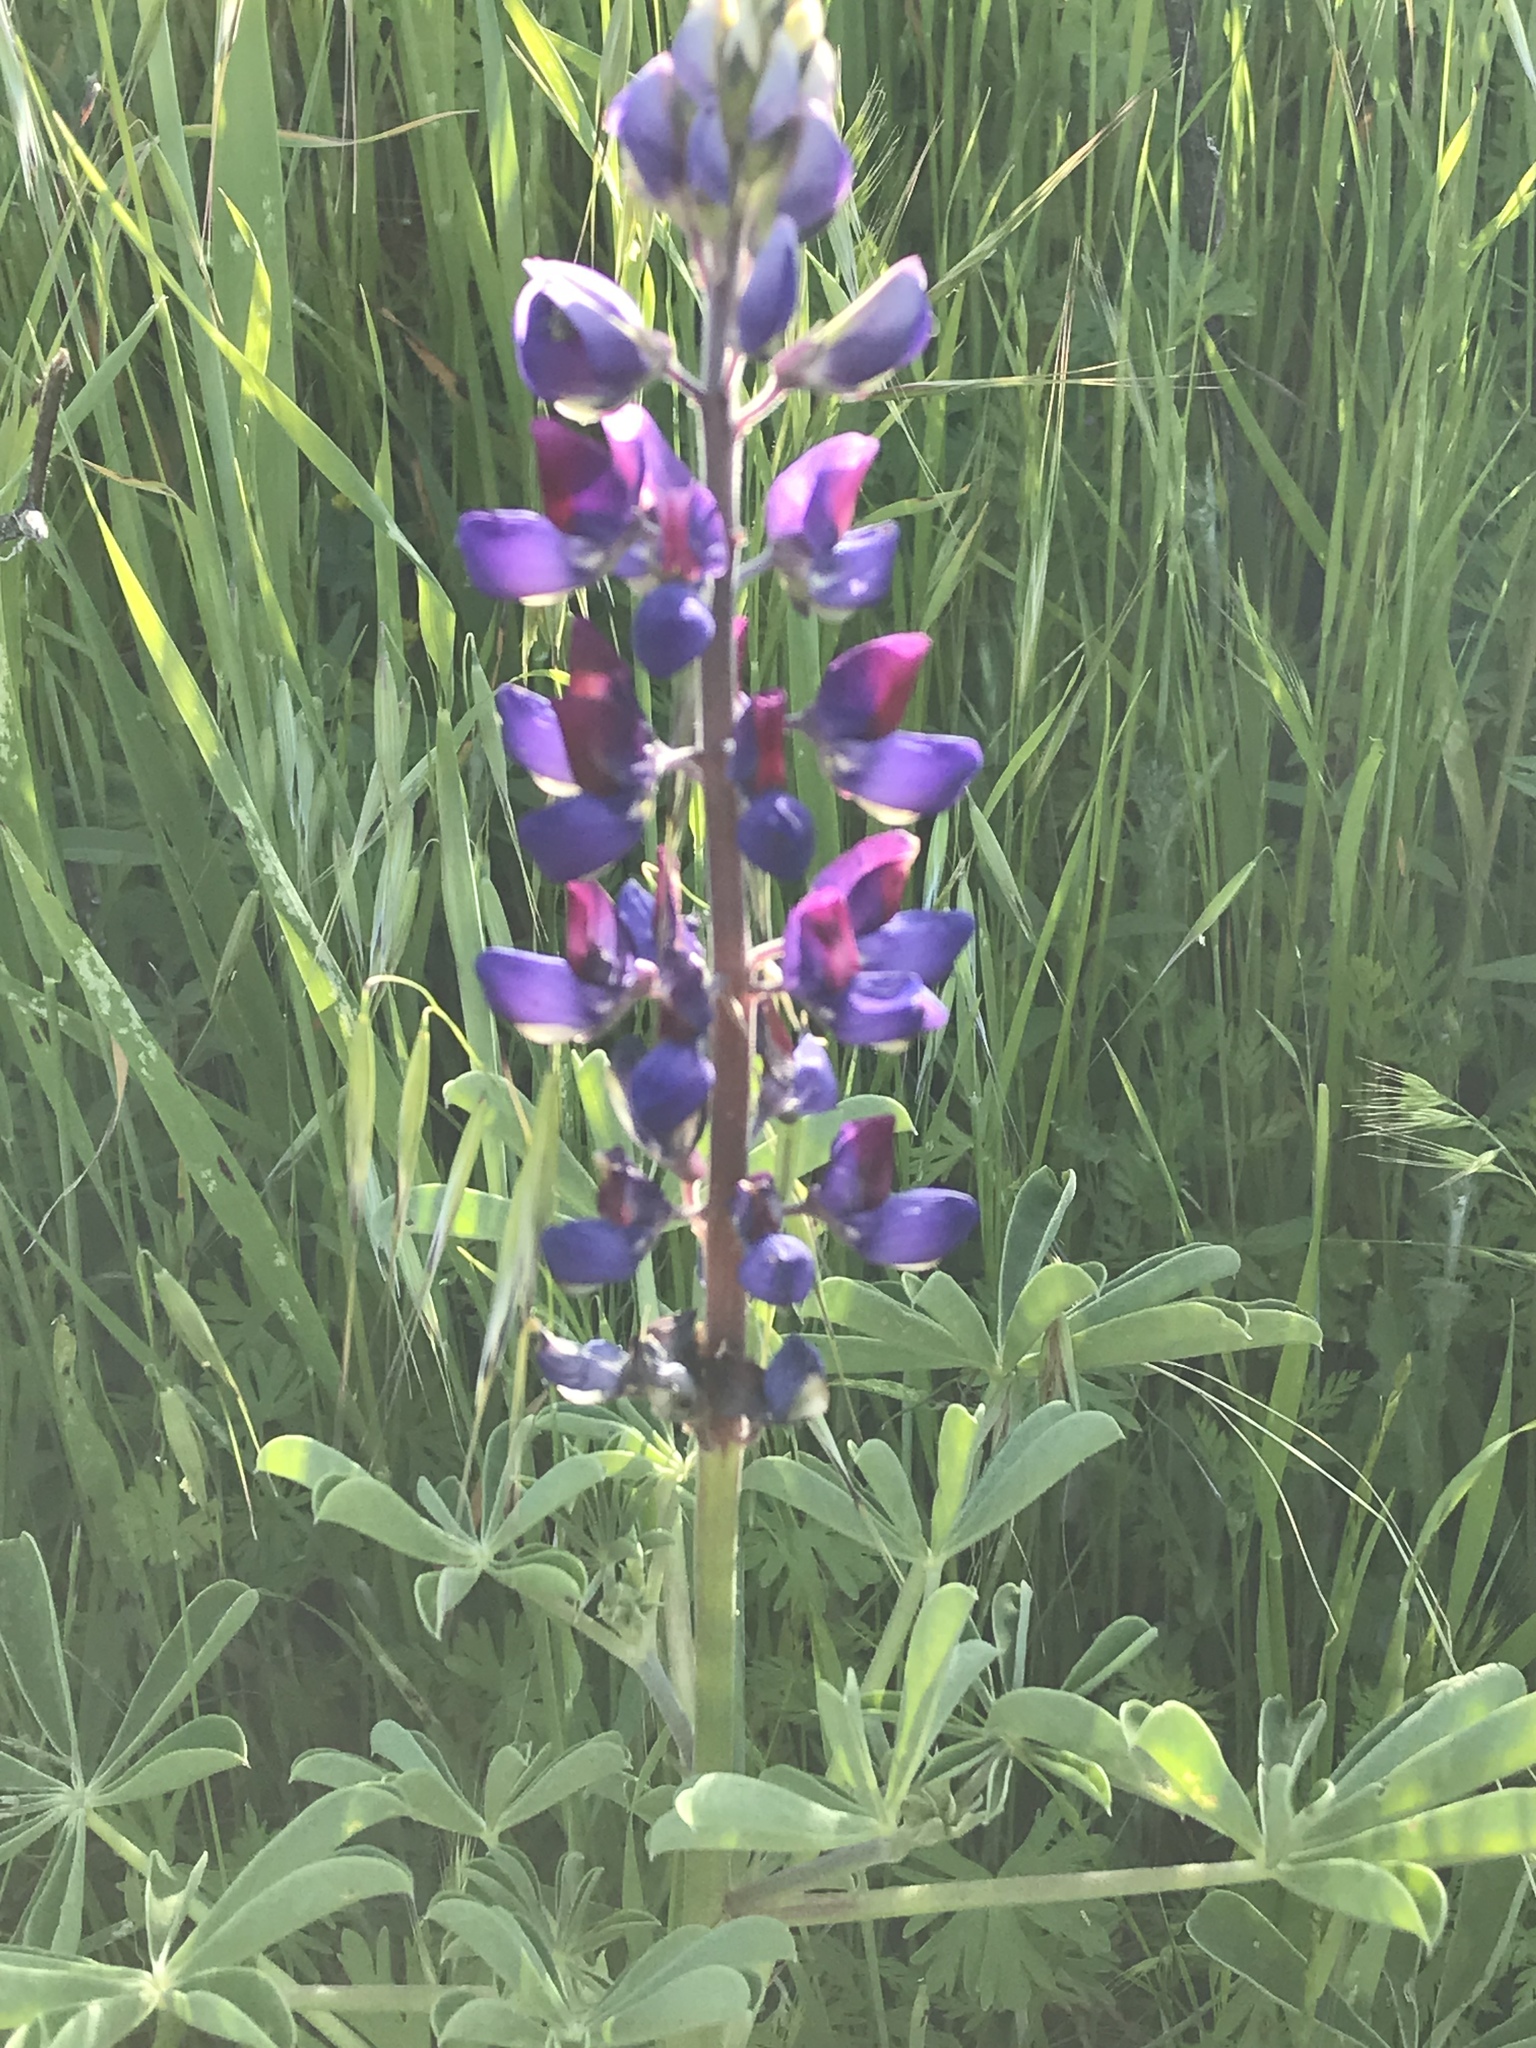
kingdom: Plantae
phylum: Tracheophyta
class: Magnoliopsida
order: Fabales
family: Fabaceae
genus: Lupinus
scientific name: Lupinus succulentus
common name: Arroyo lupine
